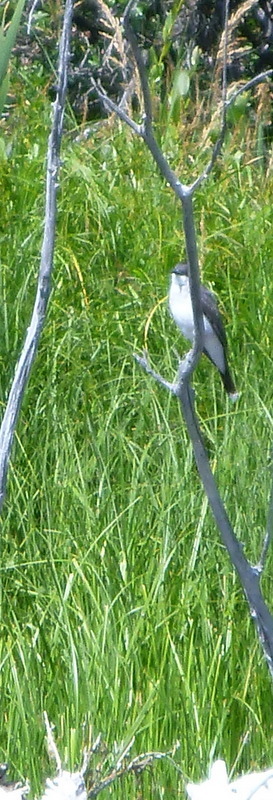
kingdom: Animalia
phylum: Chordata
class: Aves
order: Passeriformes
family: Tyrannidae
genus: Tyrannus
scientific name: Tyrannus tyrannus
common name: Eastern kingbird
